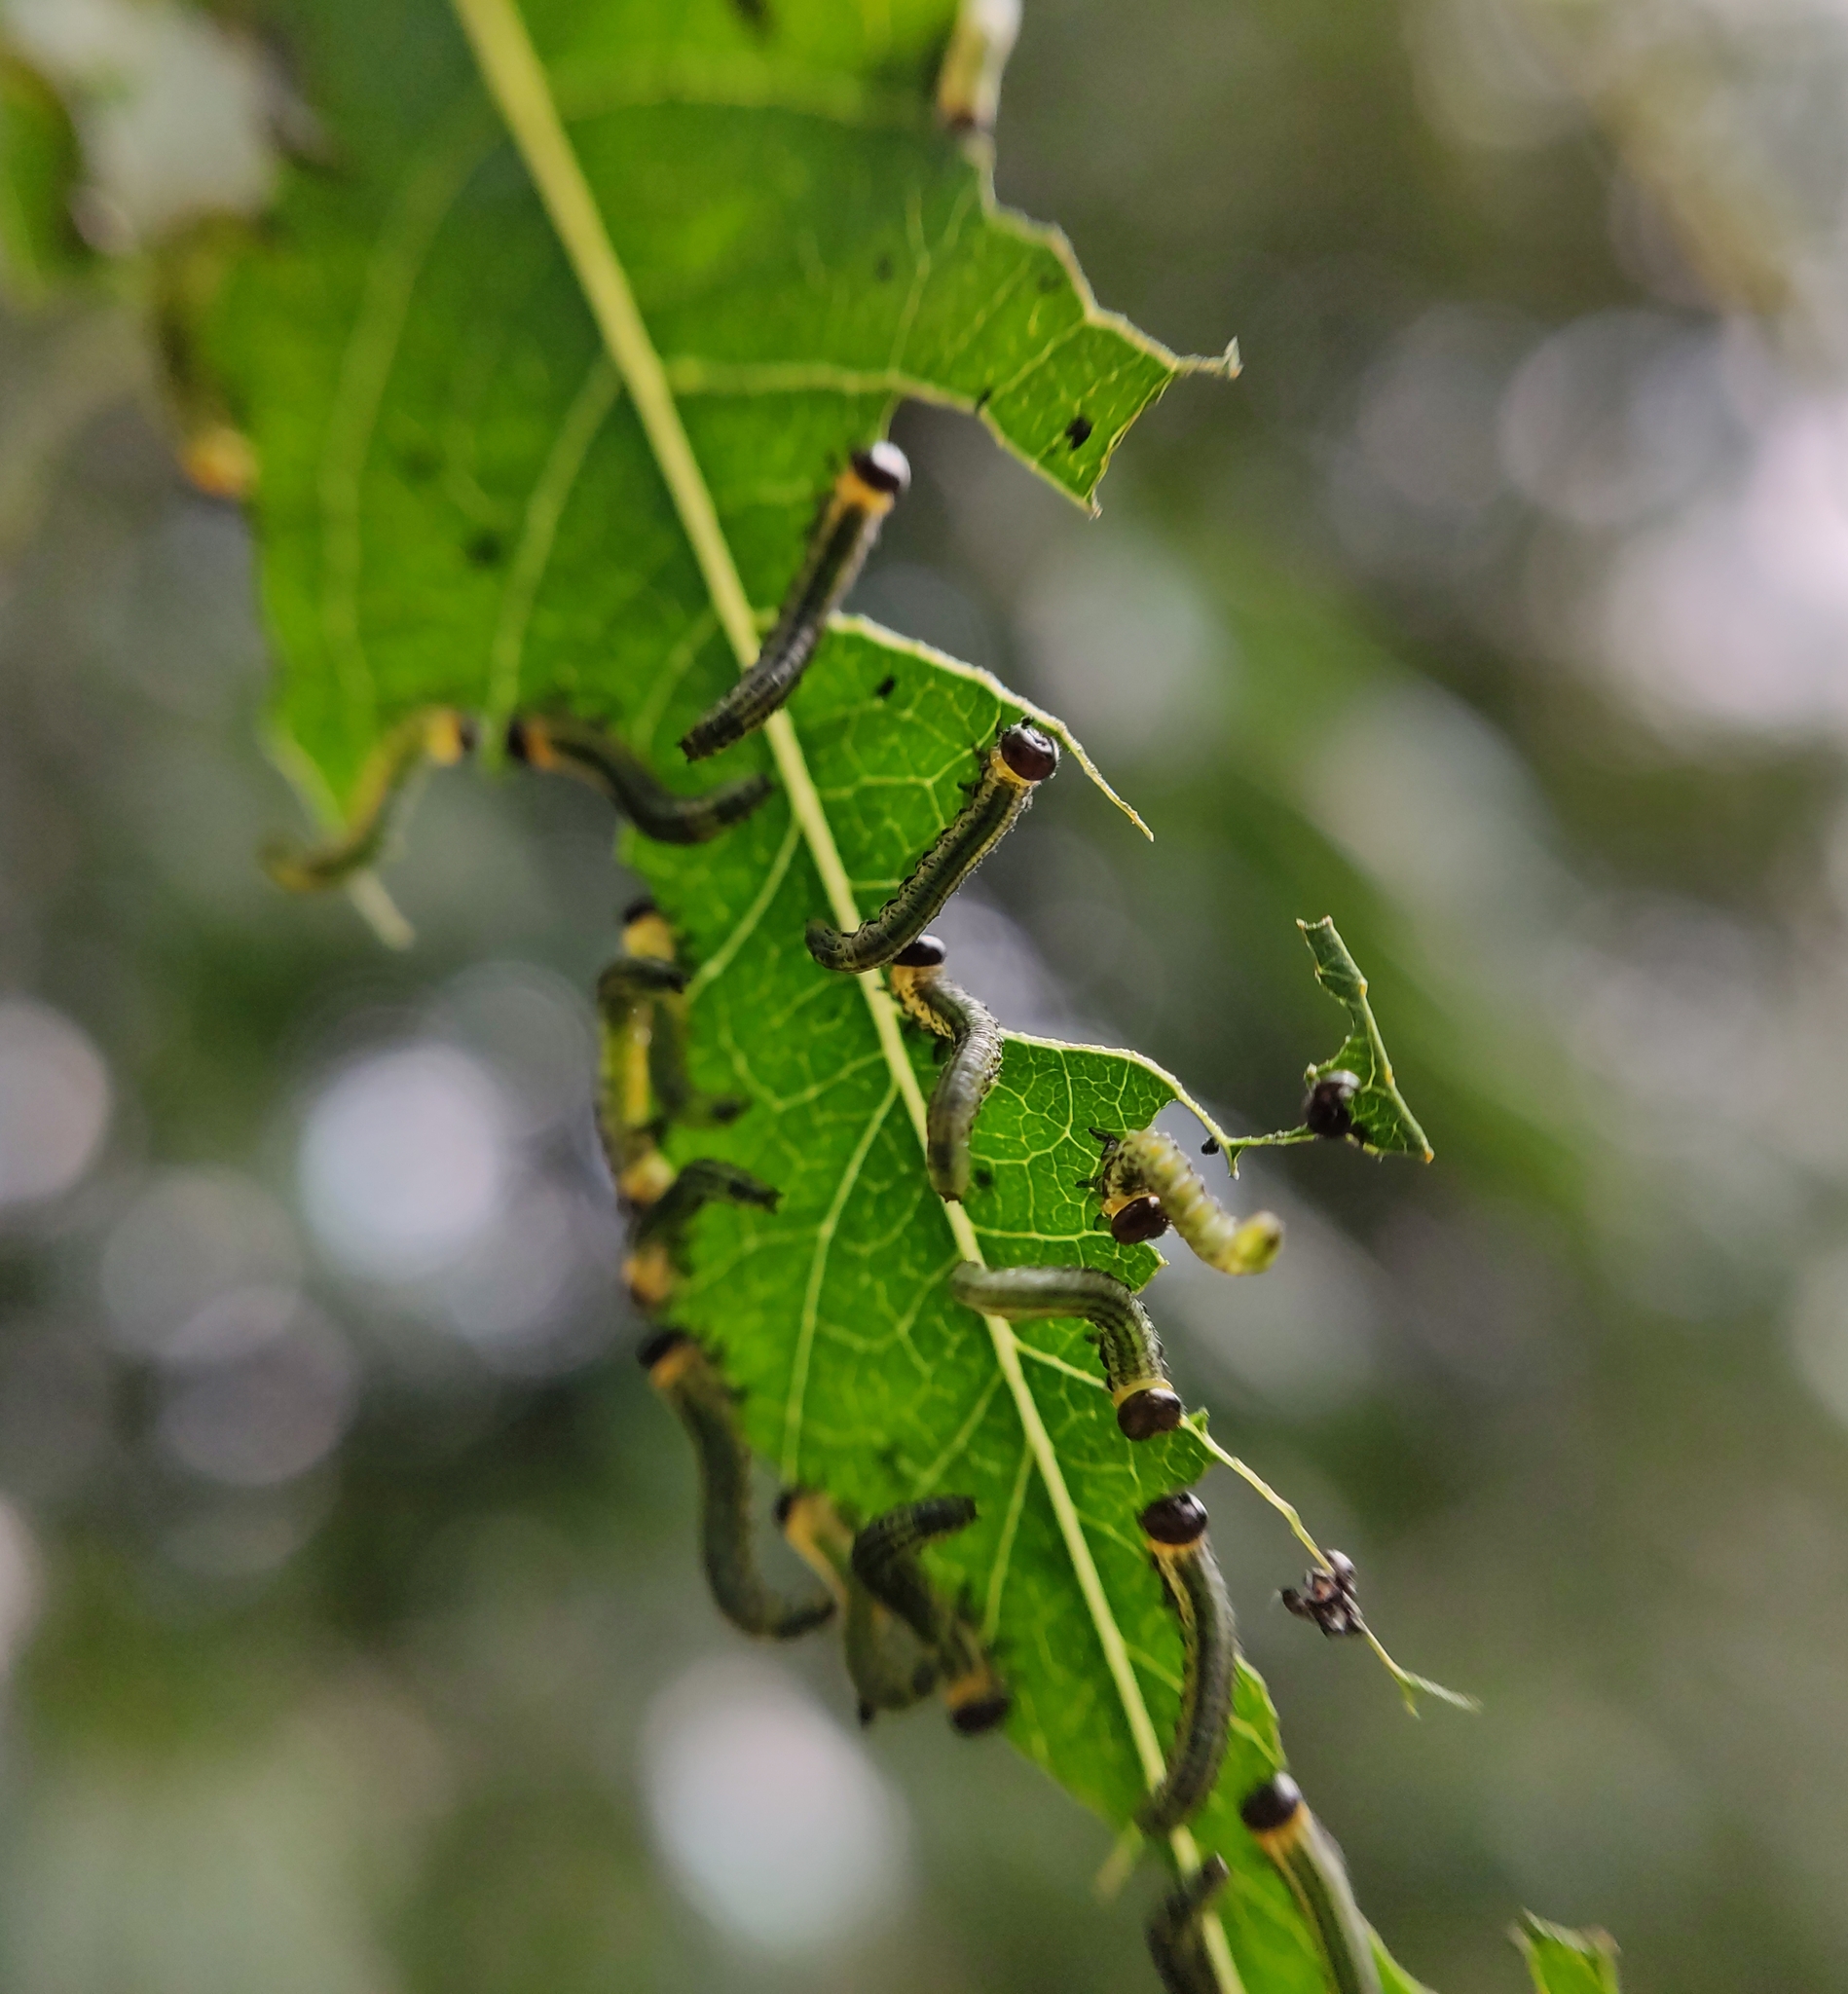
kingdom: Animalia
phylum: Arthropoda
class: Insecta
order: Hymenoptera
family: Tenthredinidae
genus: Nematus
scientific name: Nematus papillosus
